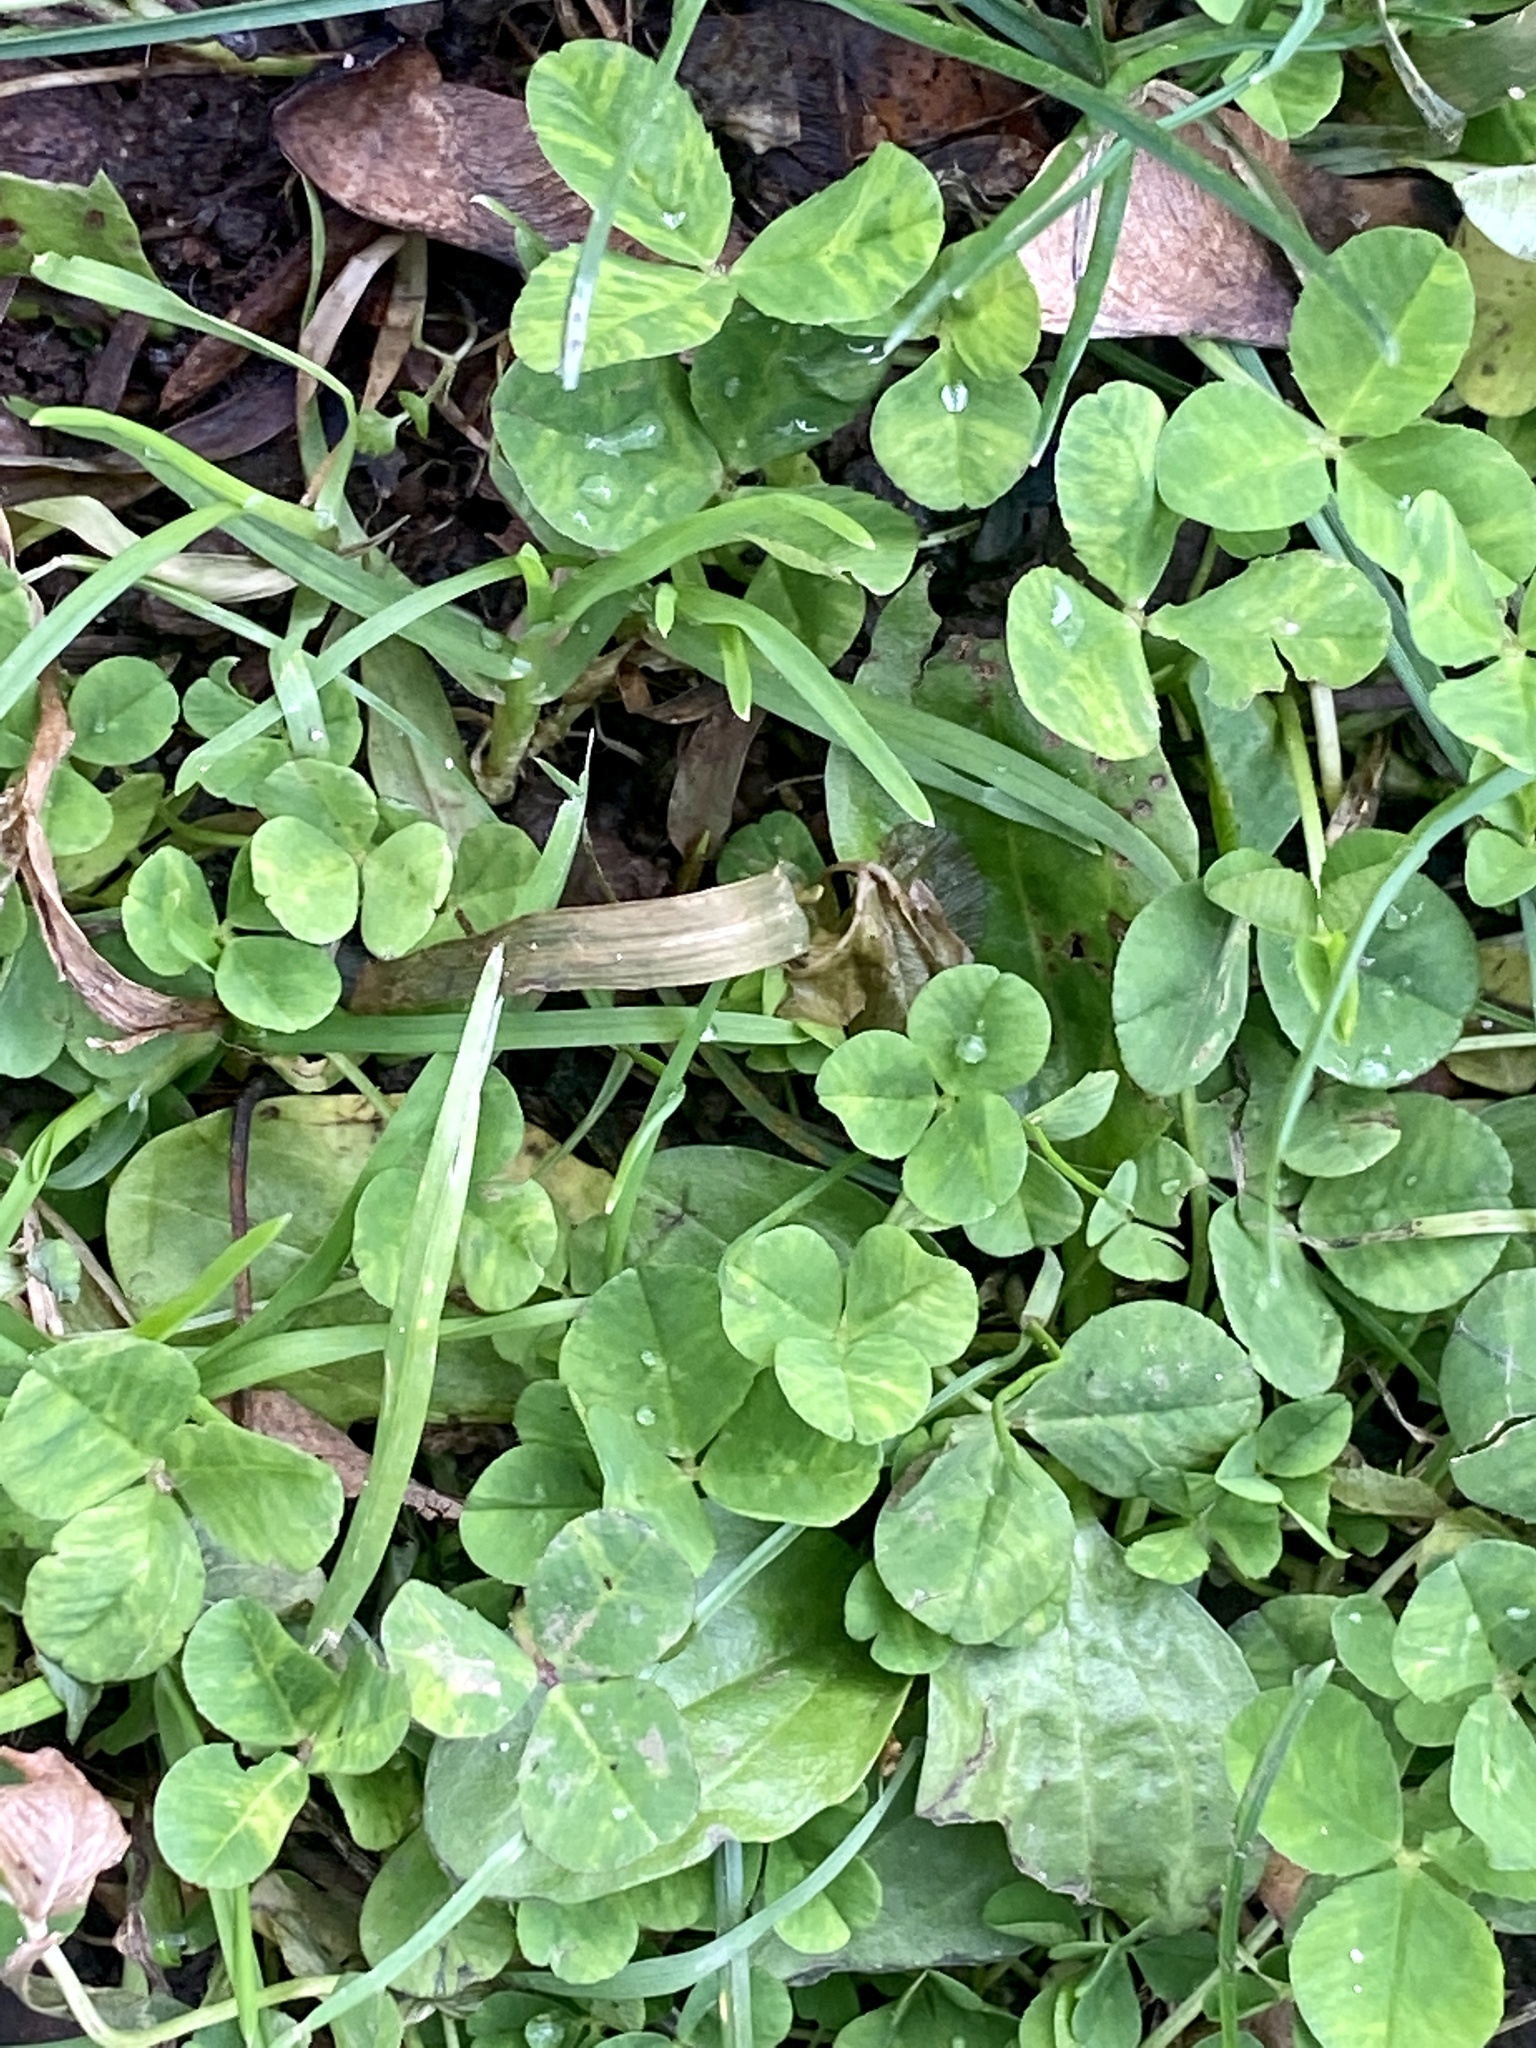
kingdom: Plantae
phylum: Tracheophyta
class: Magnoliopsida
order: Fabales
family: Fabaceae
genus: Trifolium
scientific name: Trifolium repens
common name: White clover
